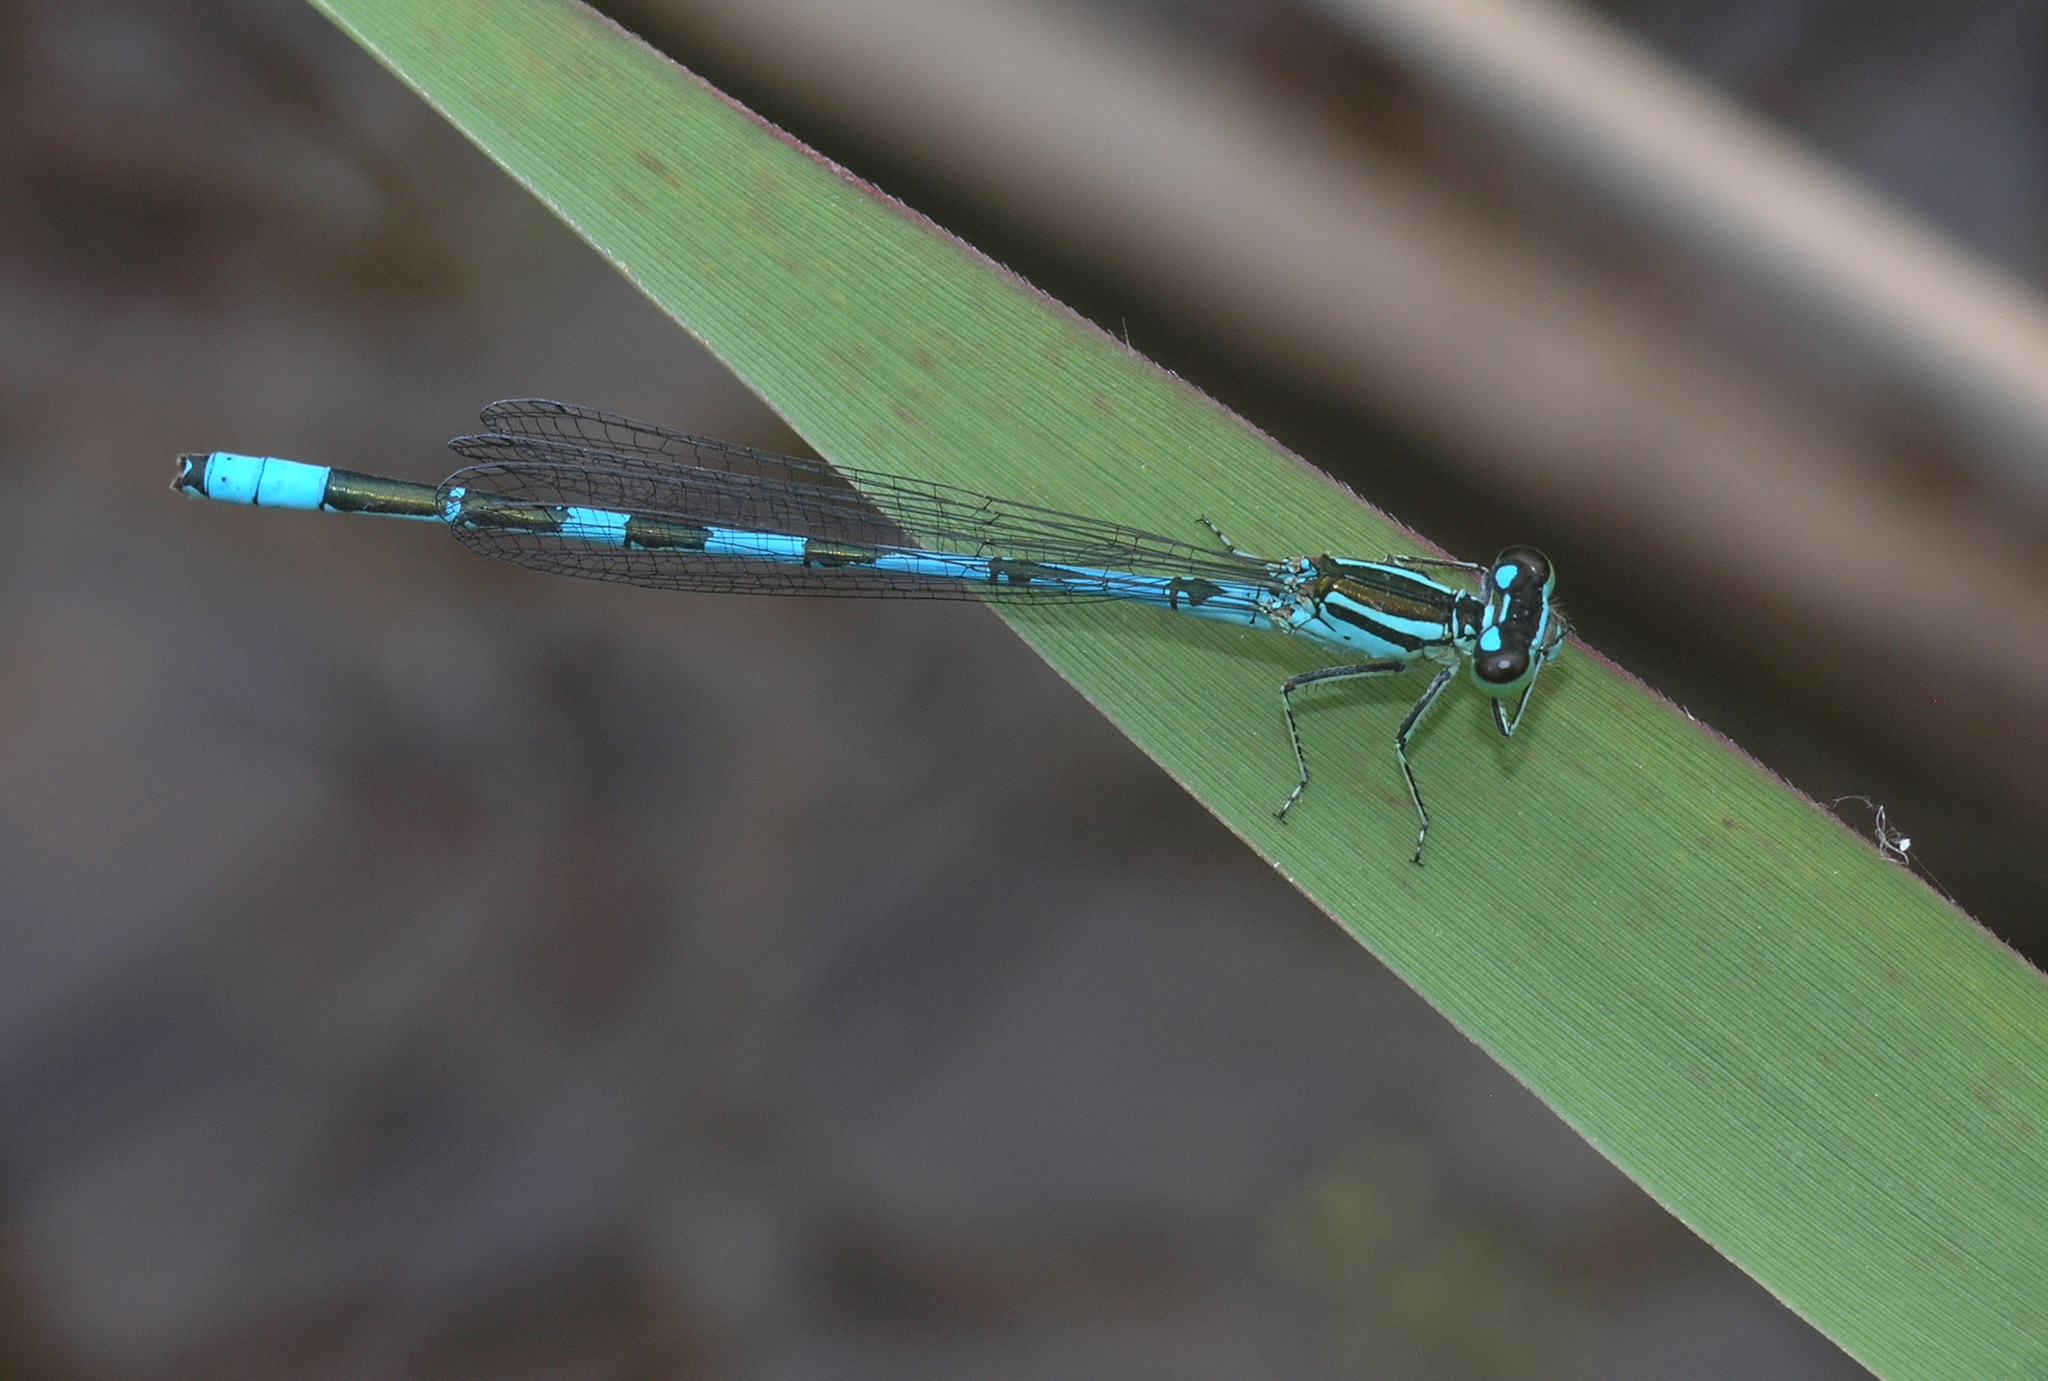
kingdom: Animalia
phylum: Arthropoda
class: Insecta
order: Odonata
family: Coenagrionidae
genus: Coenagrion
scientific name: Coenagrion lanceolatum
